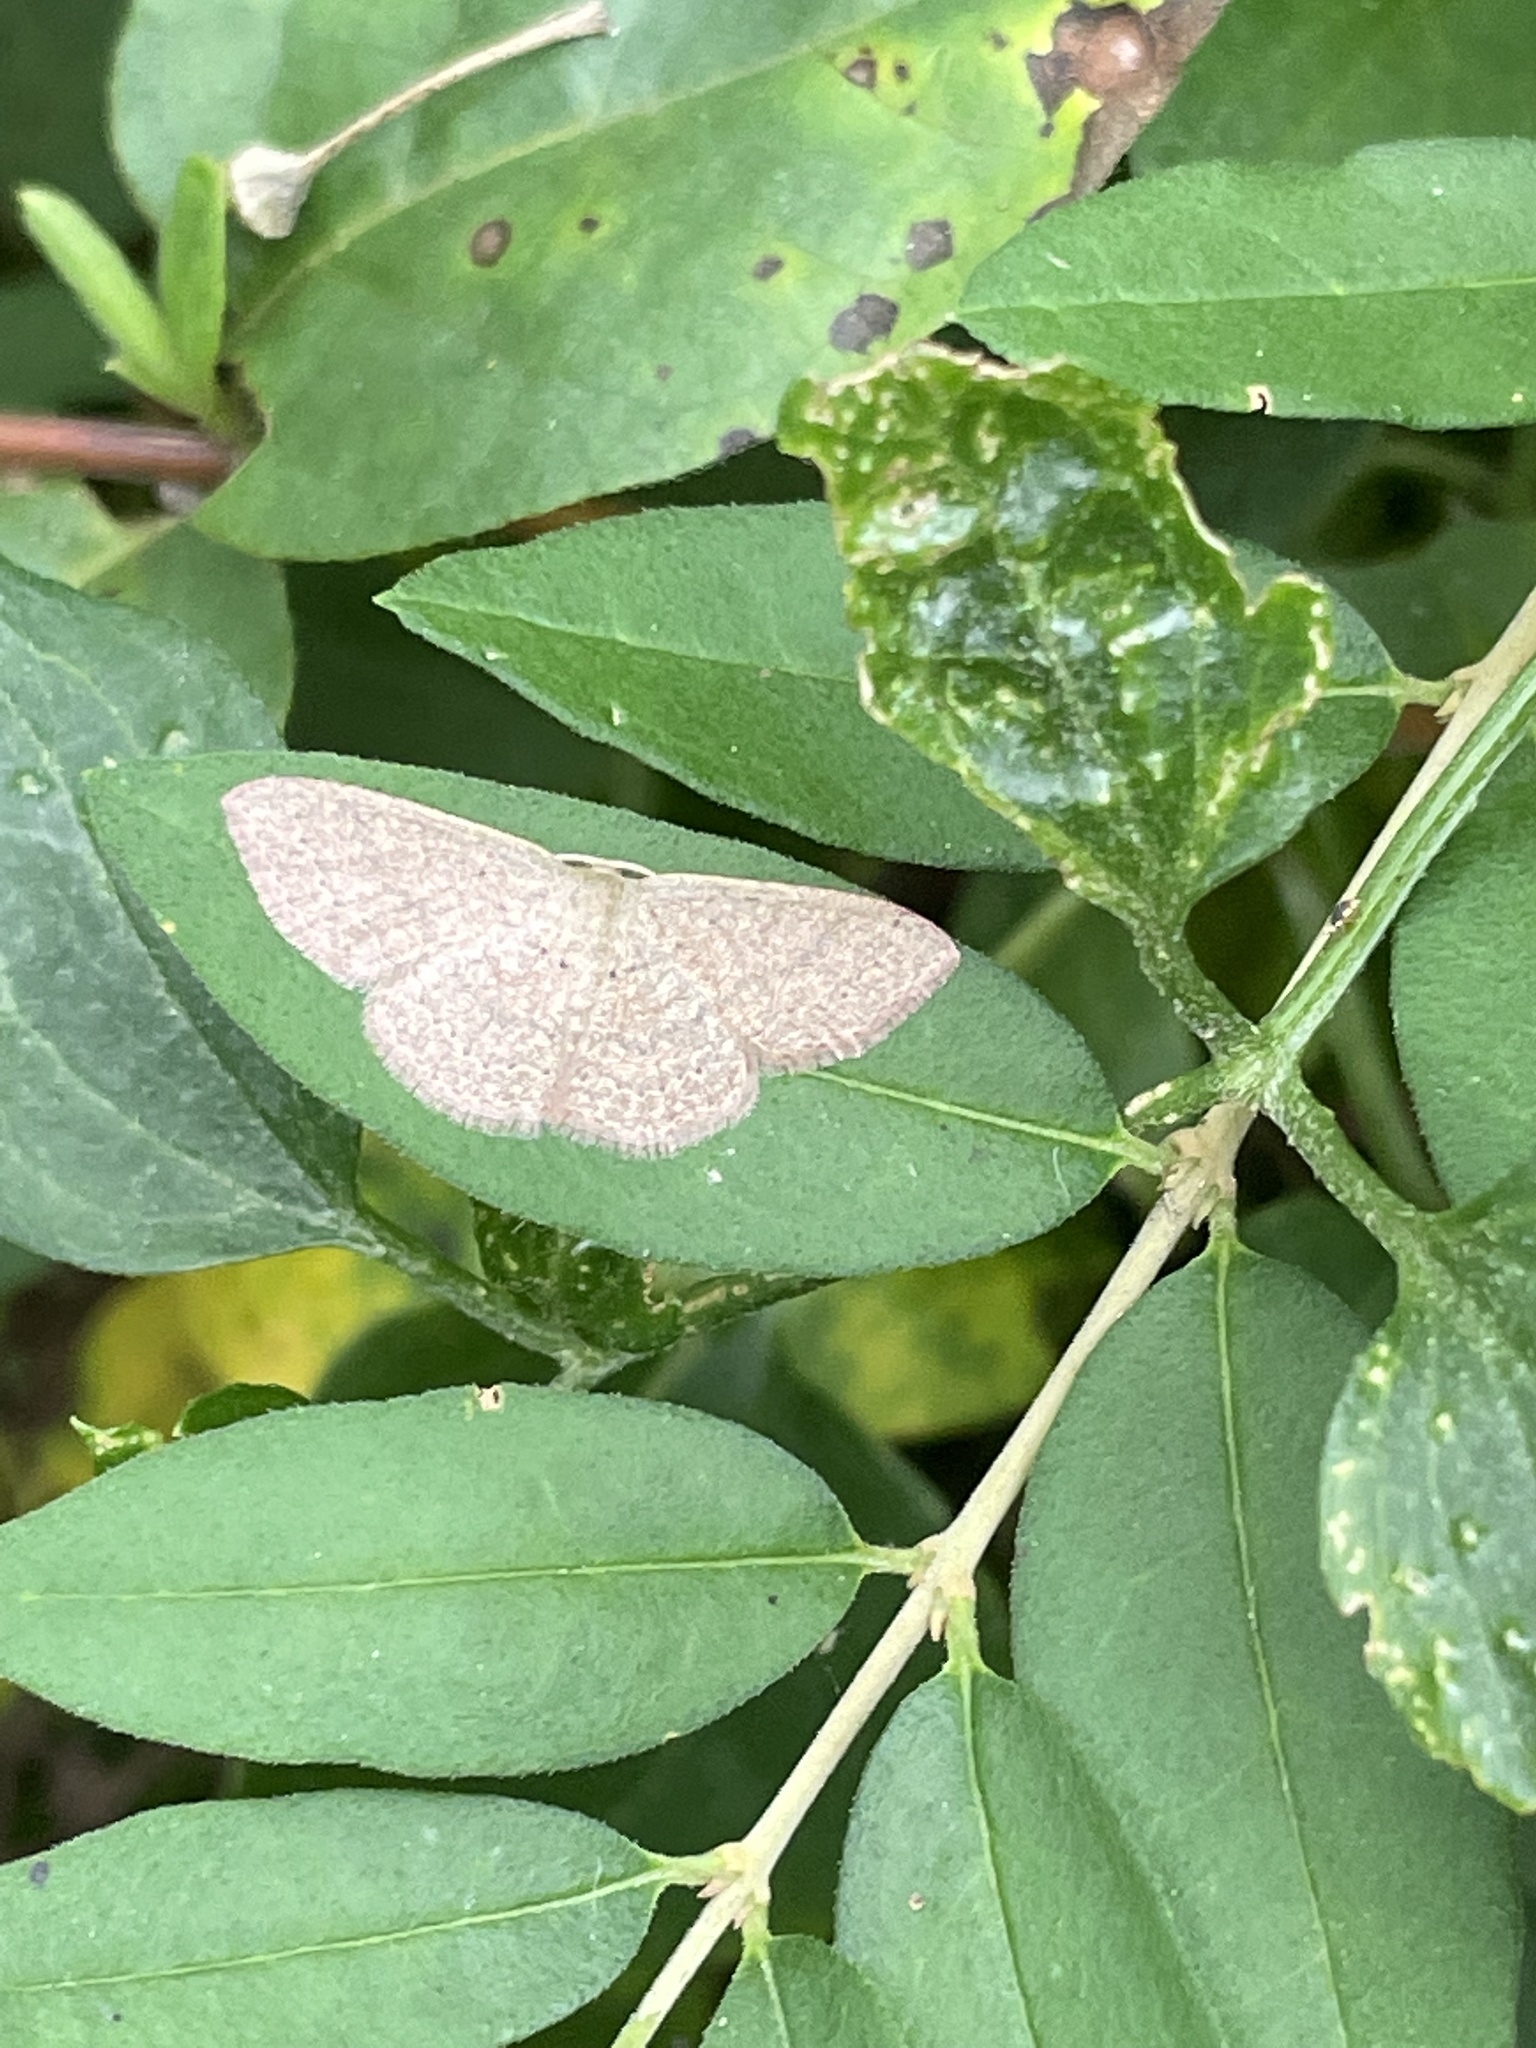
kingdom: Animalia
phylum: Arthropoda
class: Insecta
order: Lepidoptera
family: Geometridae
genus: Pleuroprucha
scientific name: Pleuroprucha insulsaria
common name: Common tan wave
